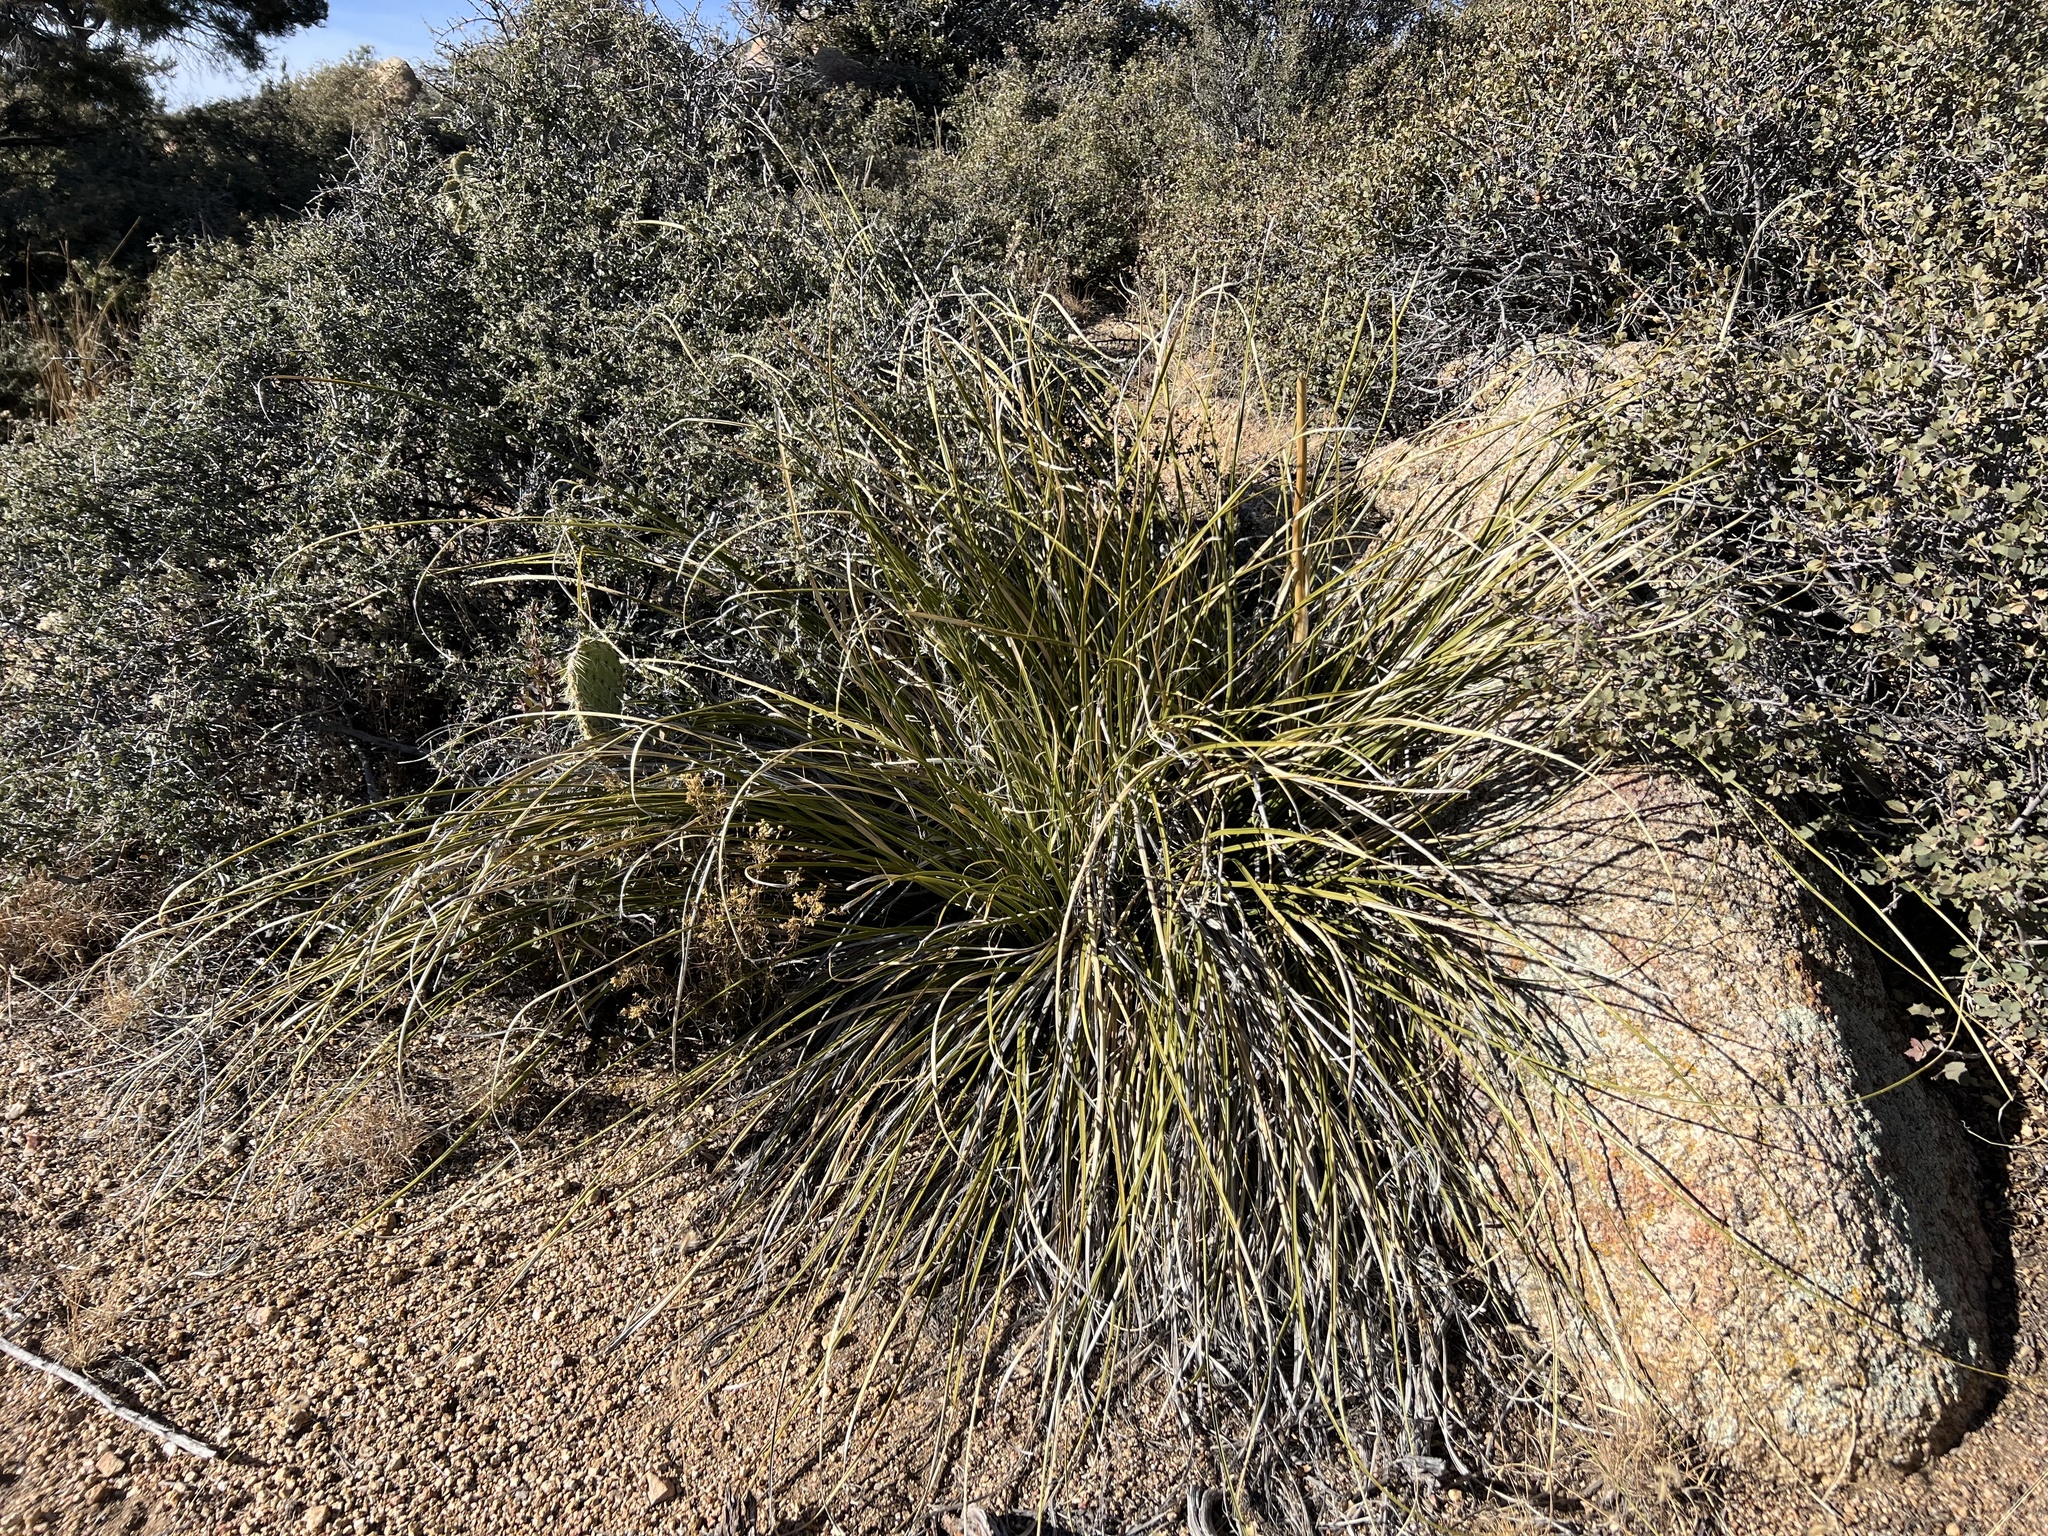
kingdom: Plantae
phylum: Tracheophyta
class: Liliopsida
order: Asparagales
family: Asparagaceae
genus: Nolina
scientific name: Nolina microcarpa
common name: Bear-grass
